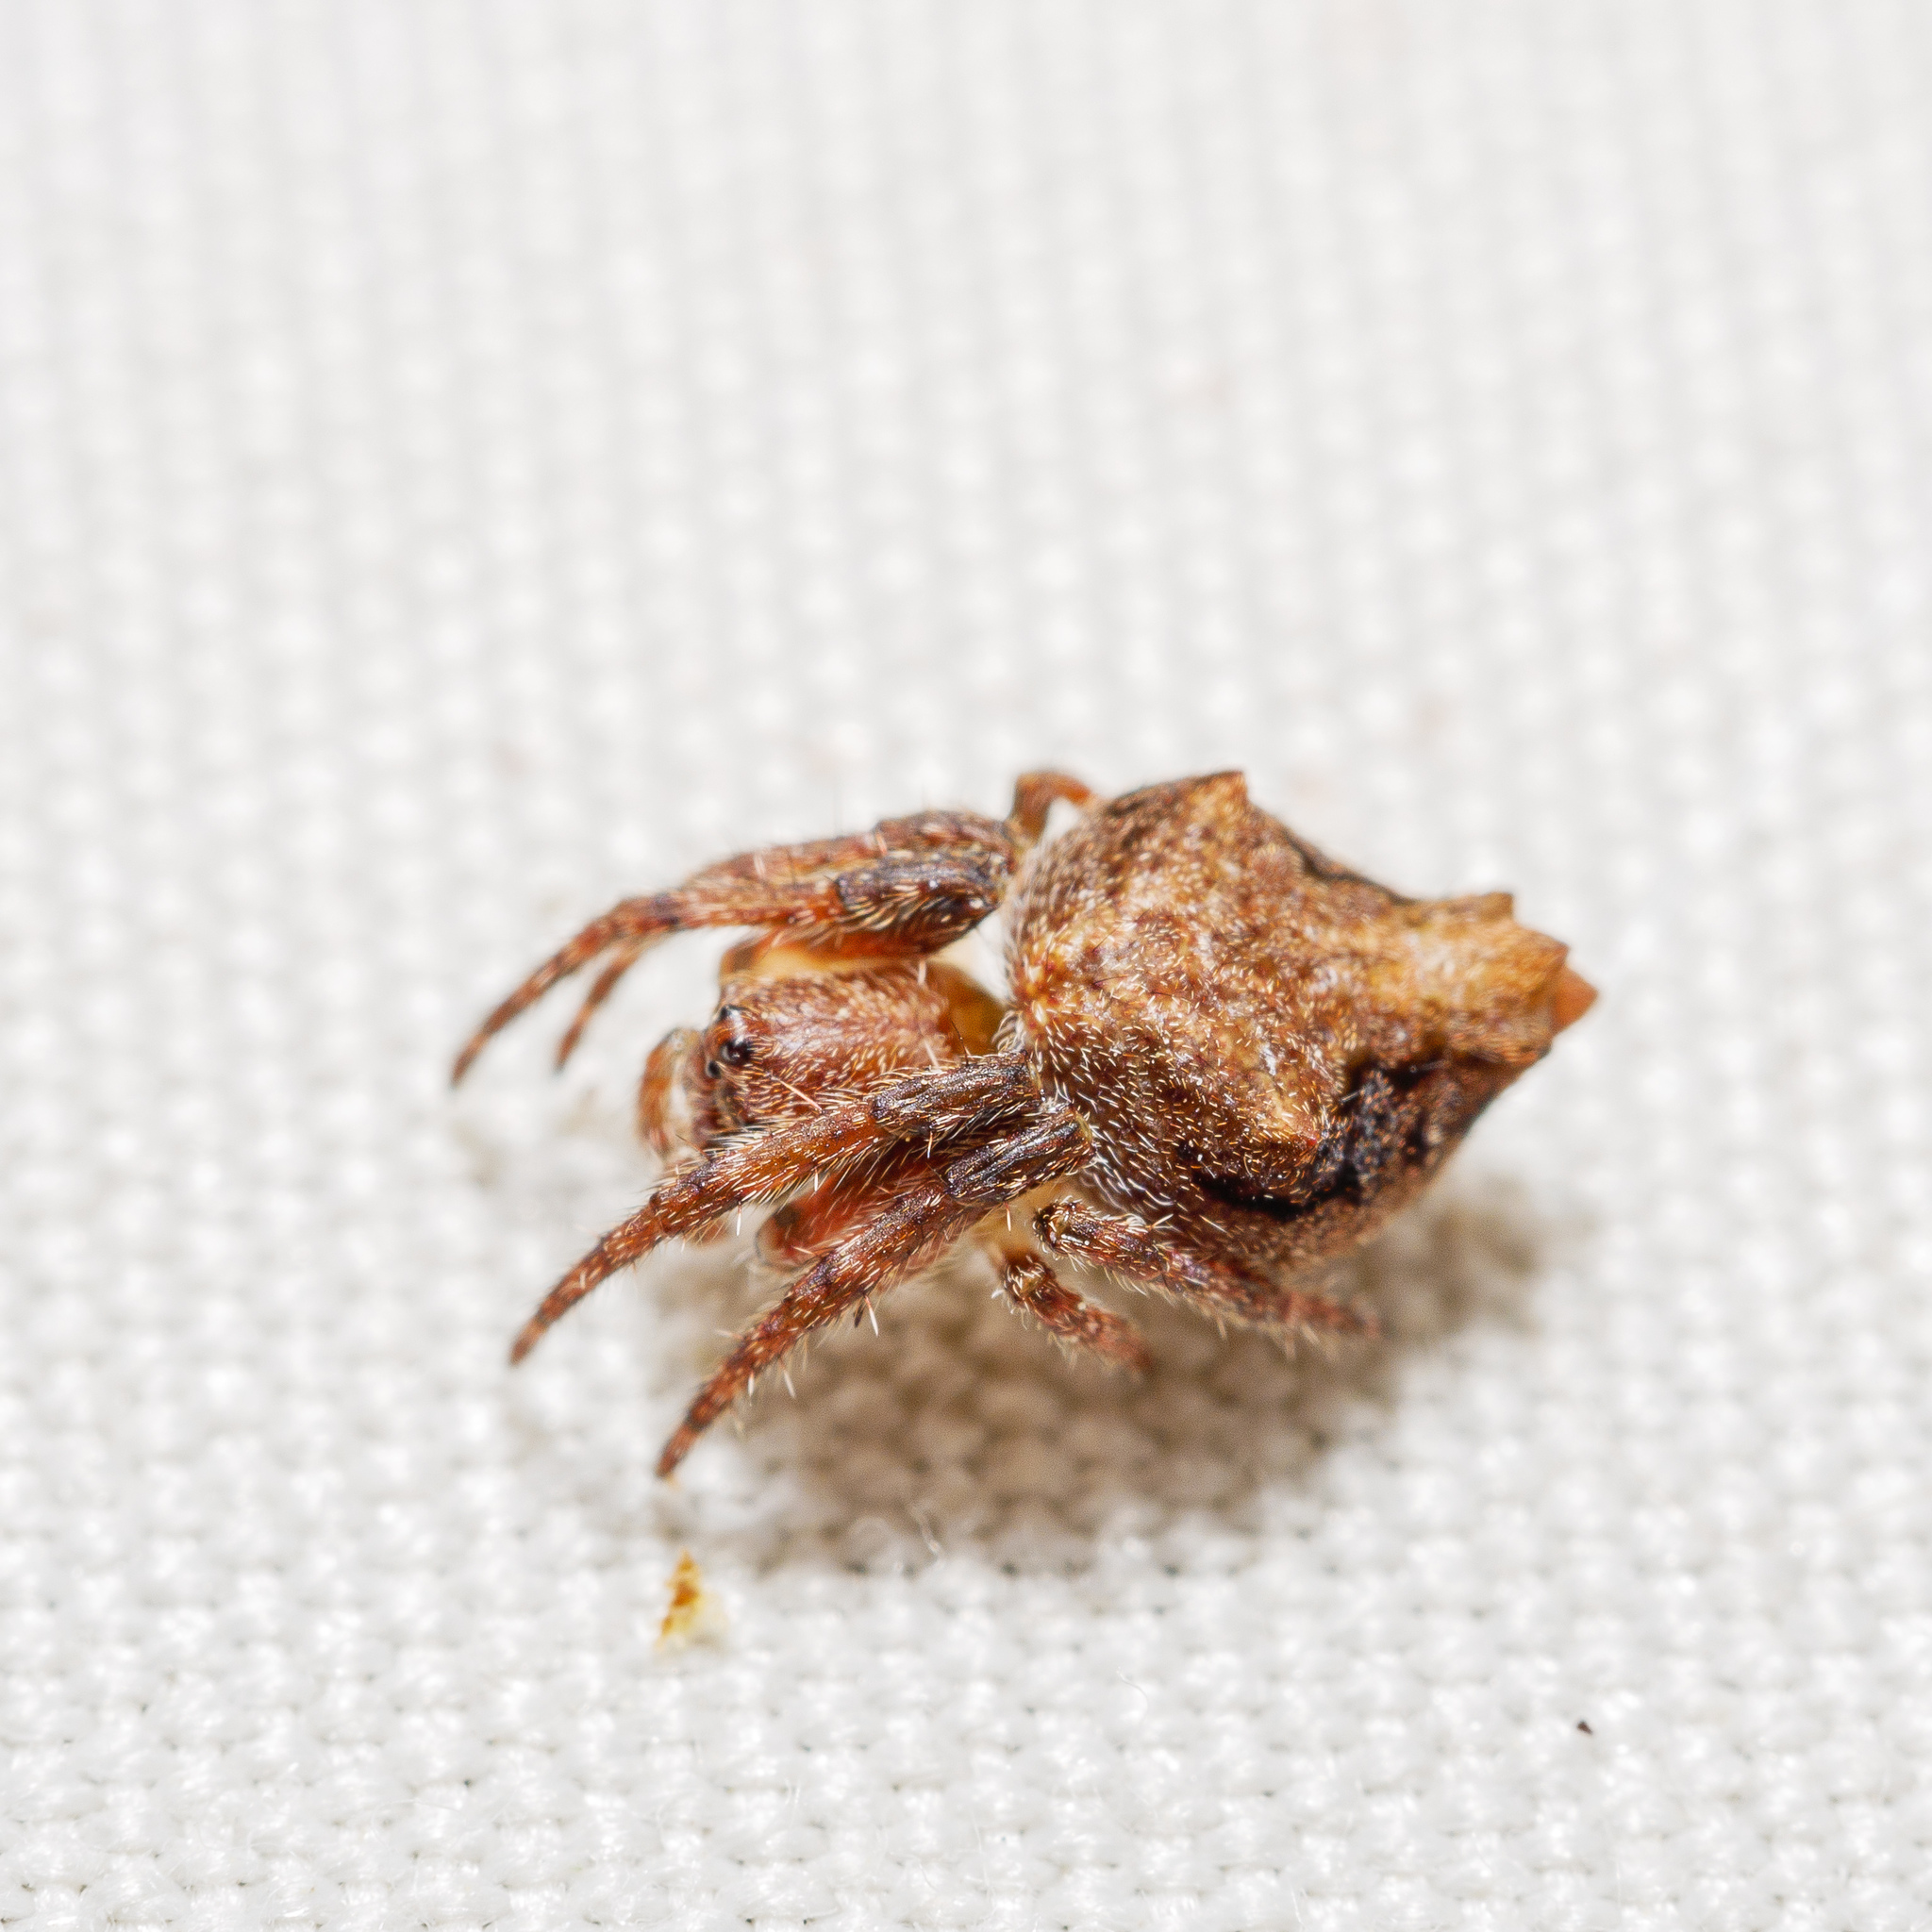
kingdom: Animalia
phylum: Arthropoda
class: Arachnida
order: Araneae
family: Araneidae
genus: Eriophora
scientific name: Eriophora pustulosa
